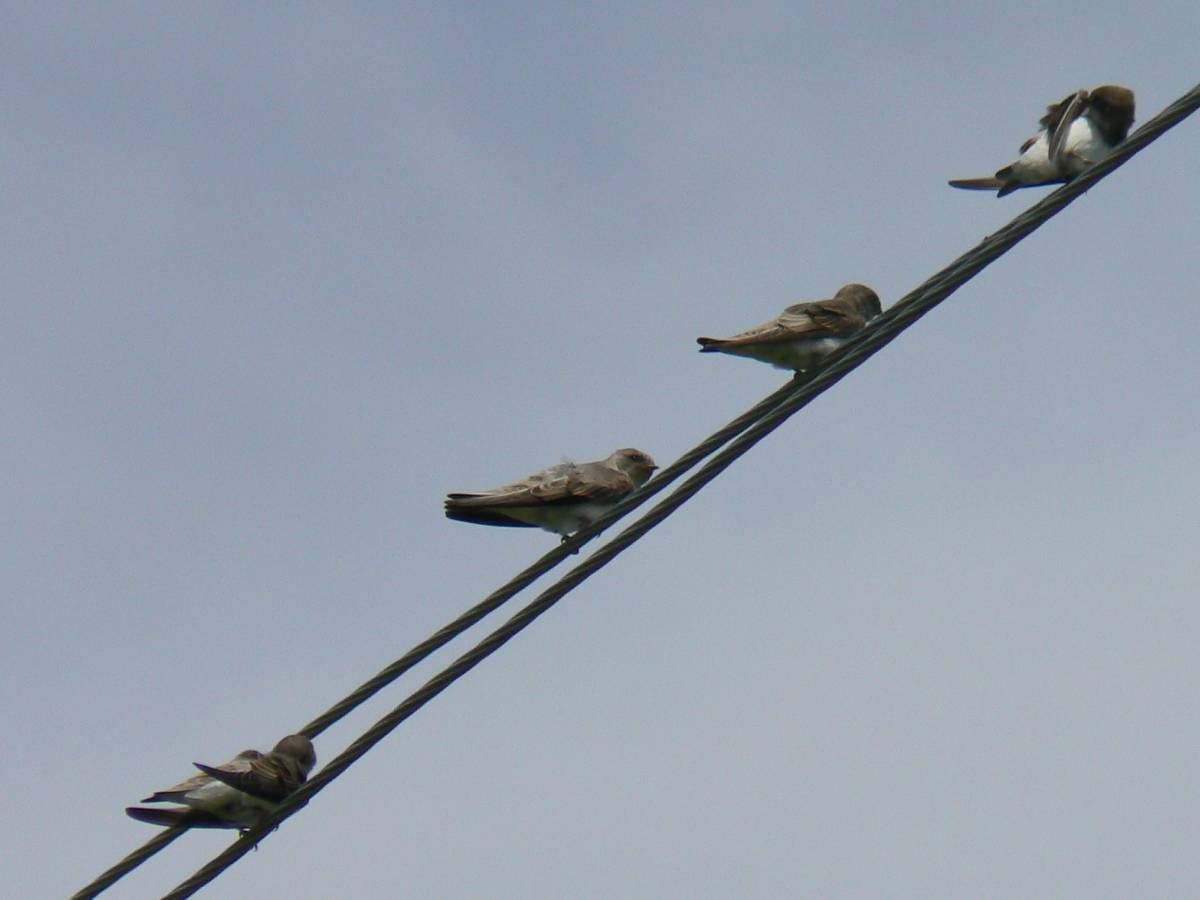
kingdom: Animalia
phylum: Chordata
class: Aves
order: Passeriformes
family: Hirundinidae
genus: Riparia
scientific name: Riparia diluta
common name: Pale martin
